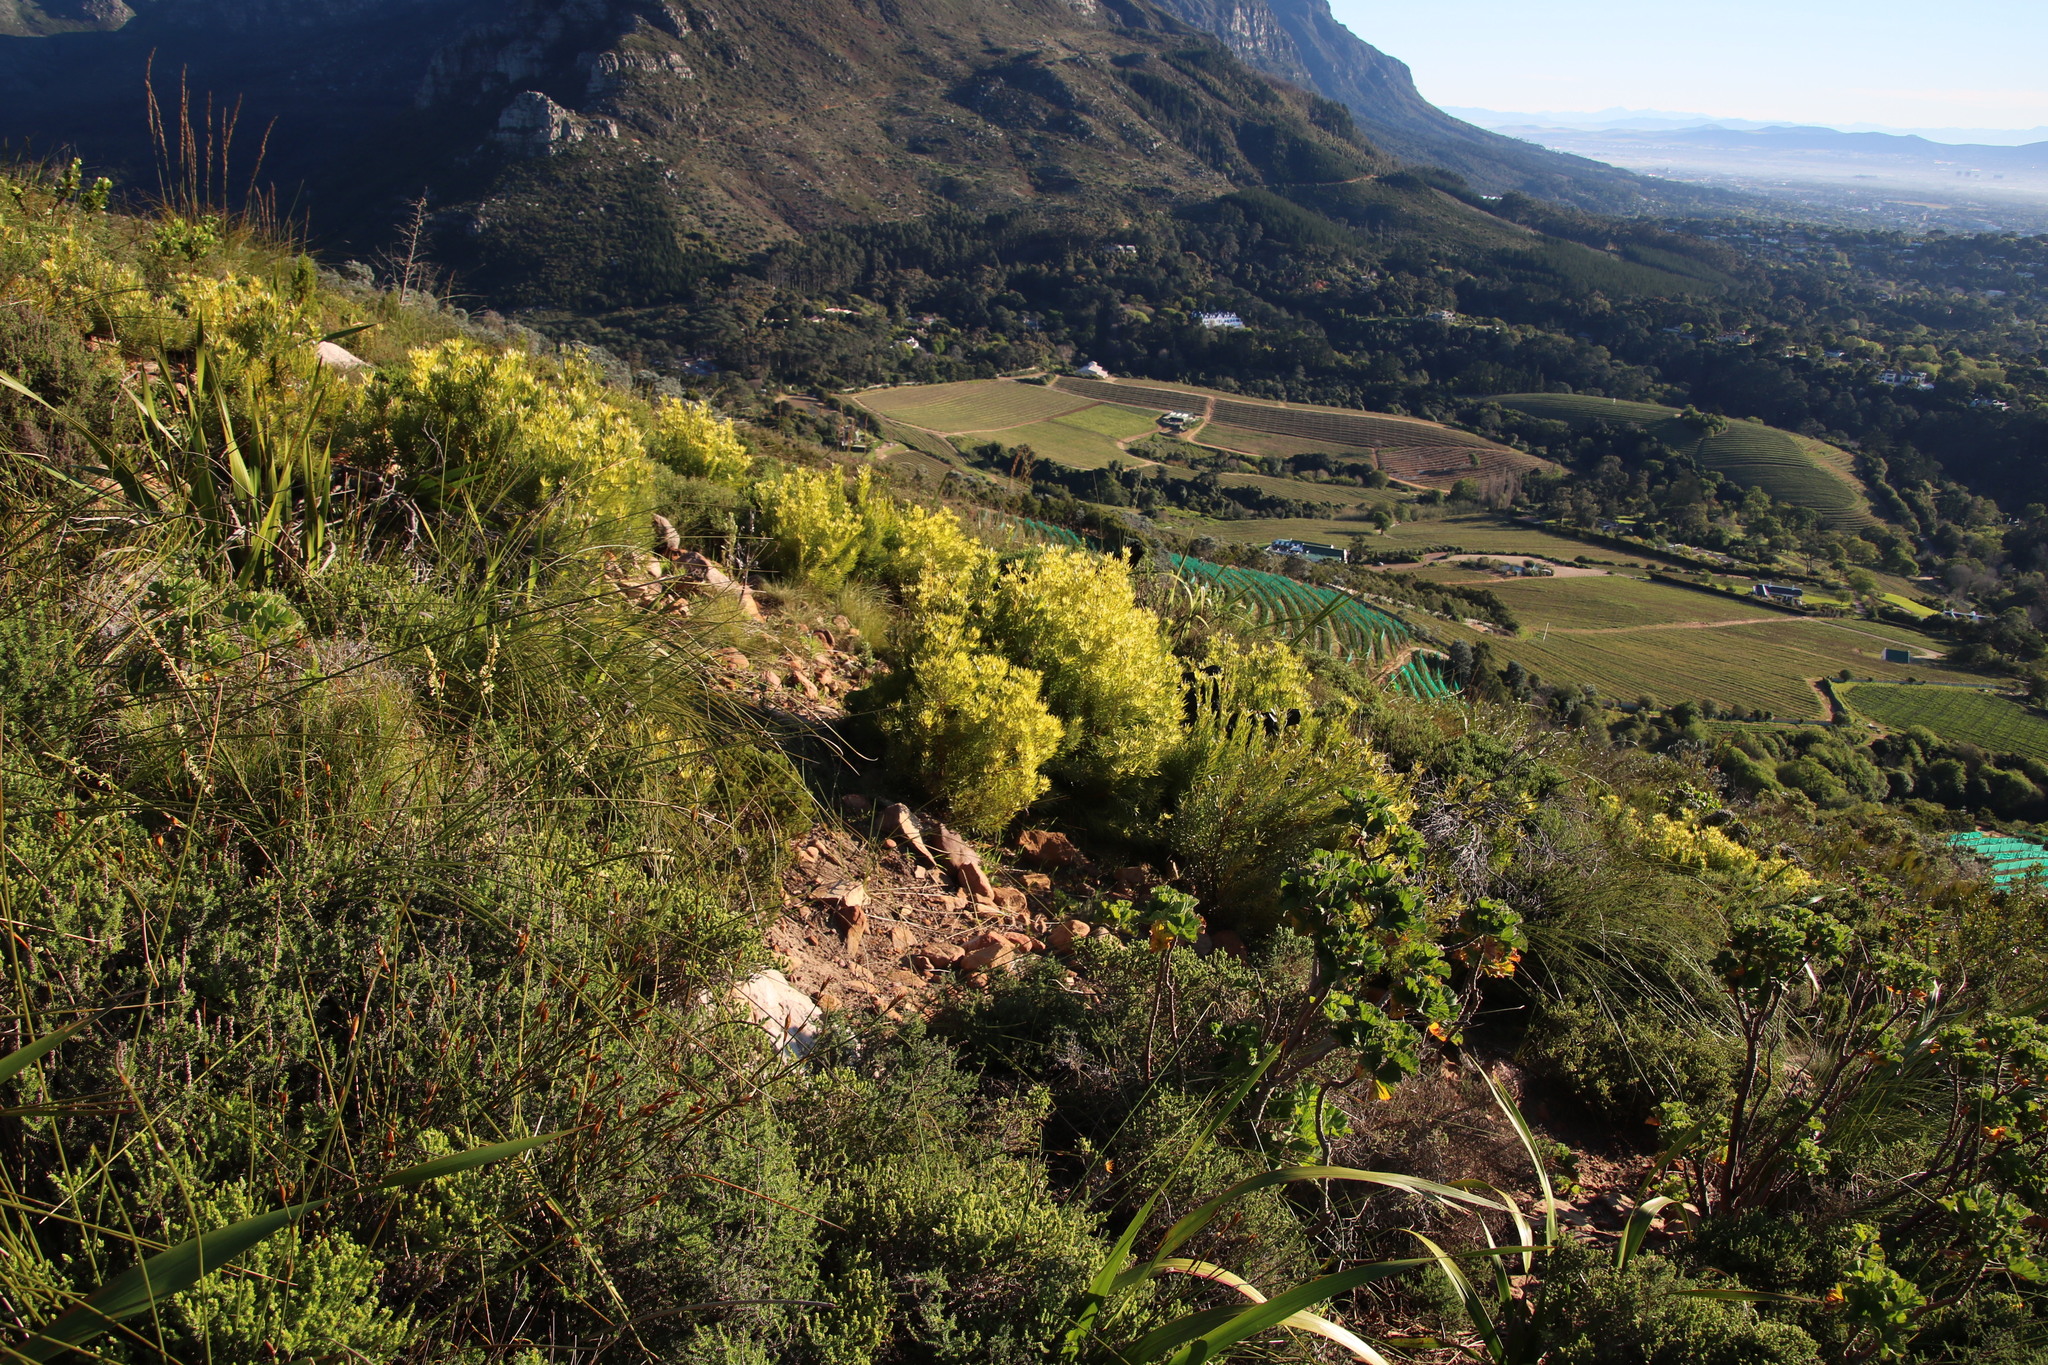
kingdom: Plantae
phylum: Tracheophyta
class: Magnoliopsida
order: Proteales
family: Proteaceae
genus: Leucadendron
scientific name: Leucadendron xanthoconus
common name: Sickle-leaf conebush
